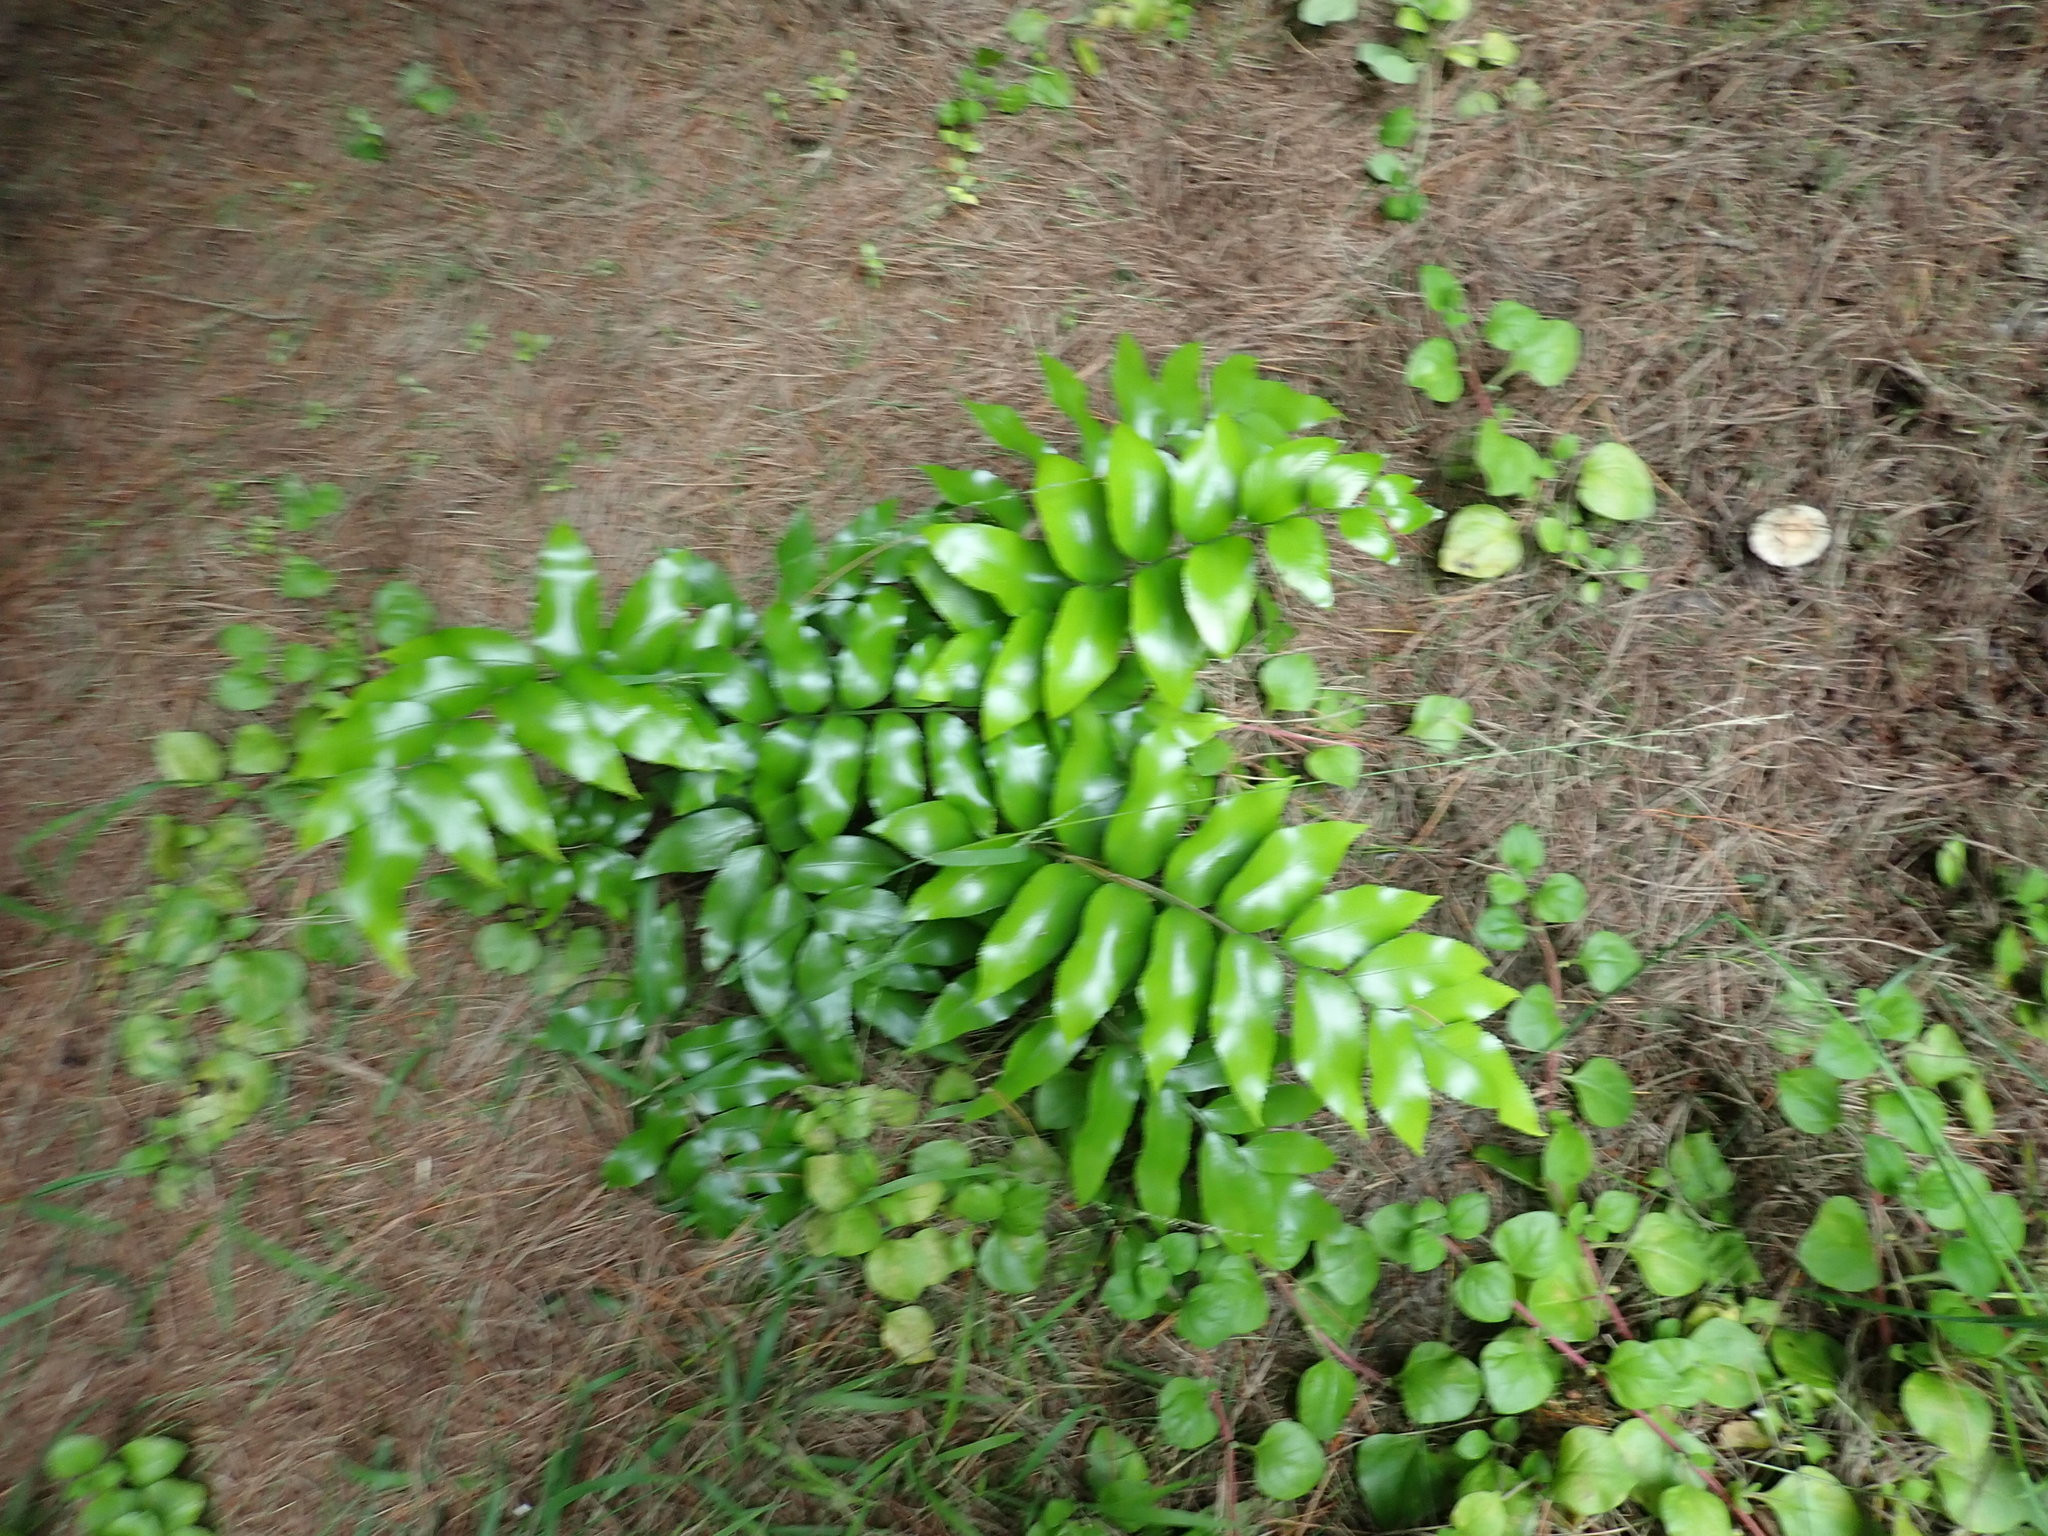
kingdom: Plantae
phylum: Tracheophyta
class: Polypodiopsida
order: Polypodiales
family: Aspleniaceae
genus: Asplenium
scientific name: Asplenium oblongifolium
